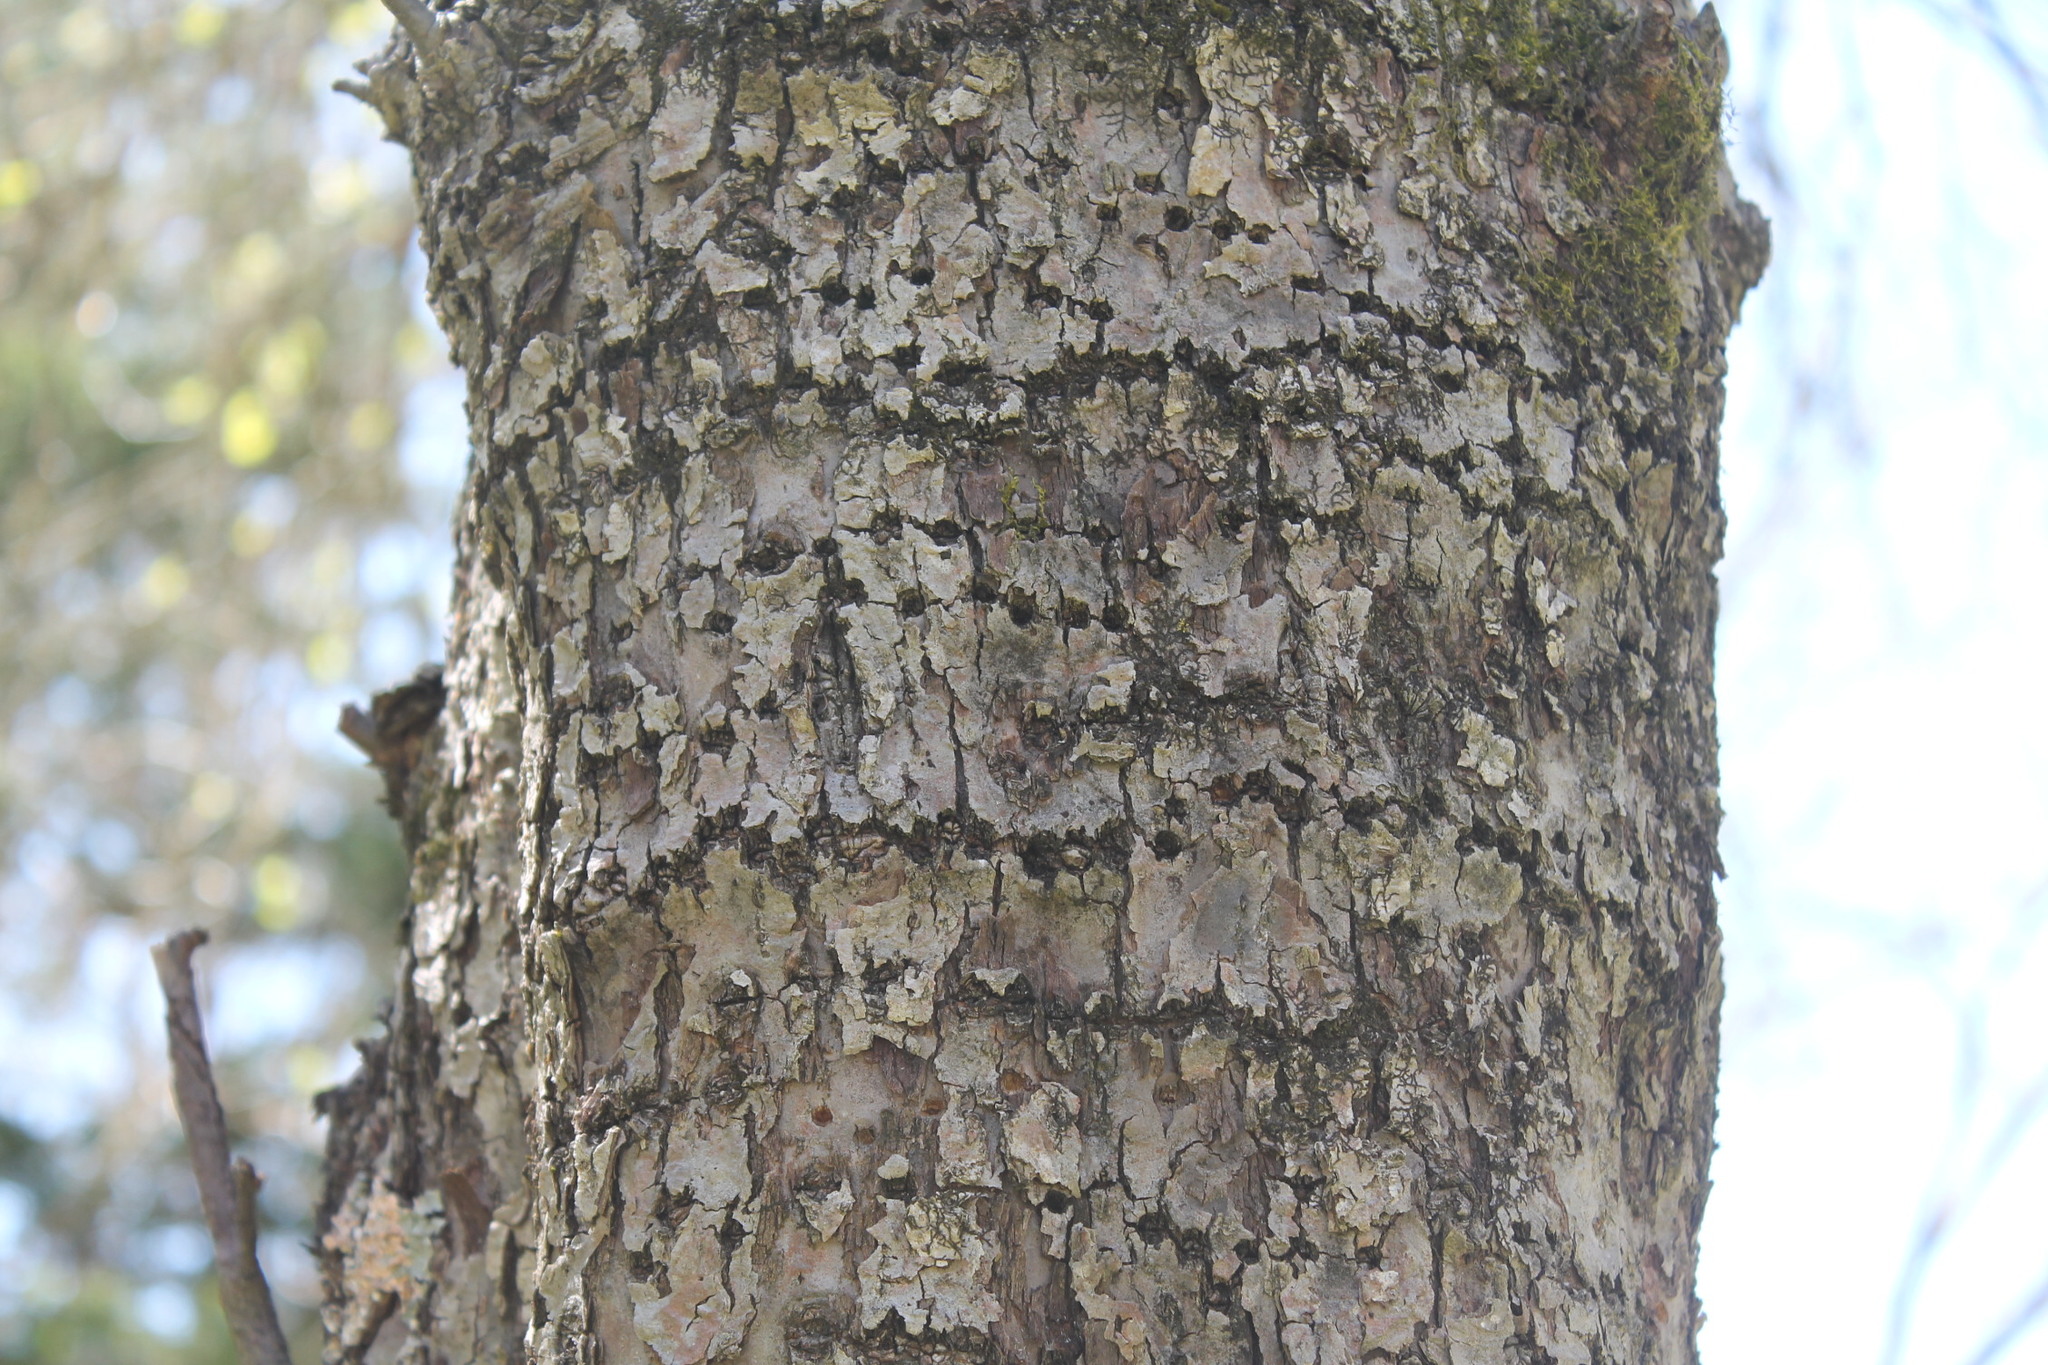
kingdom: Animalia
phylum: Chordata
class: Aves
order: Piciformes
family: Picidae
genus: Sphyrapicus
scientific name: Sphyrapicus varius
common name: Yellow-bellied sapsucker
